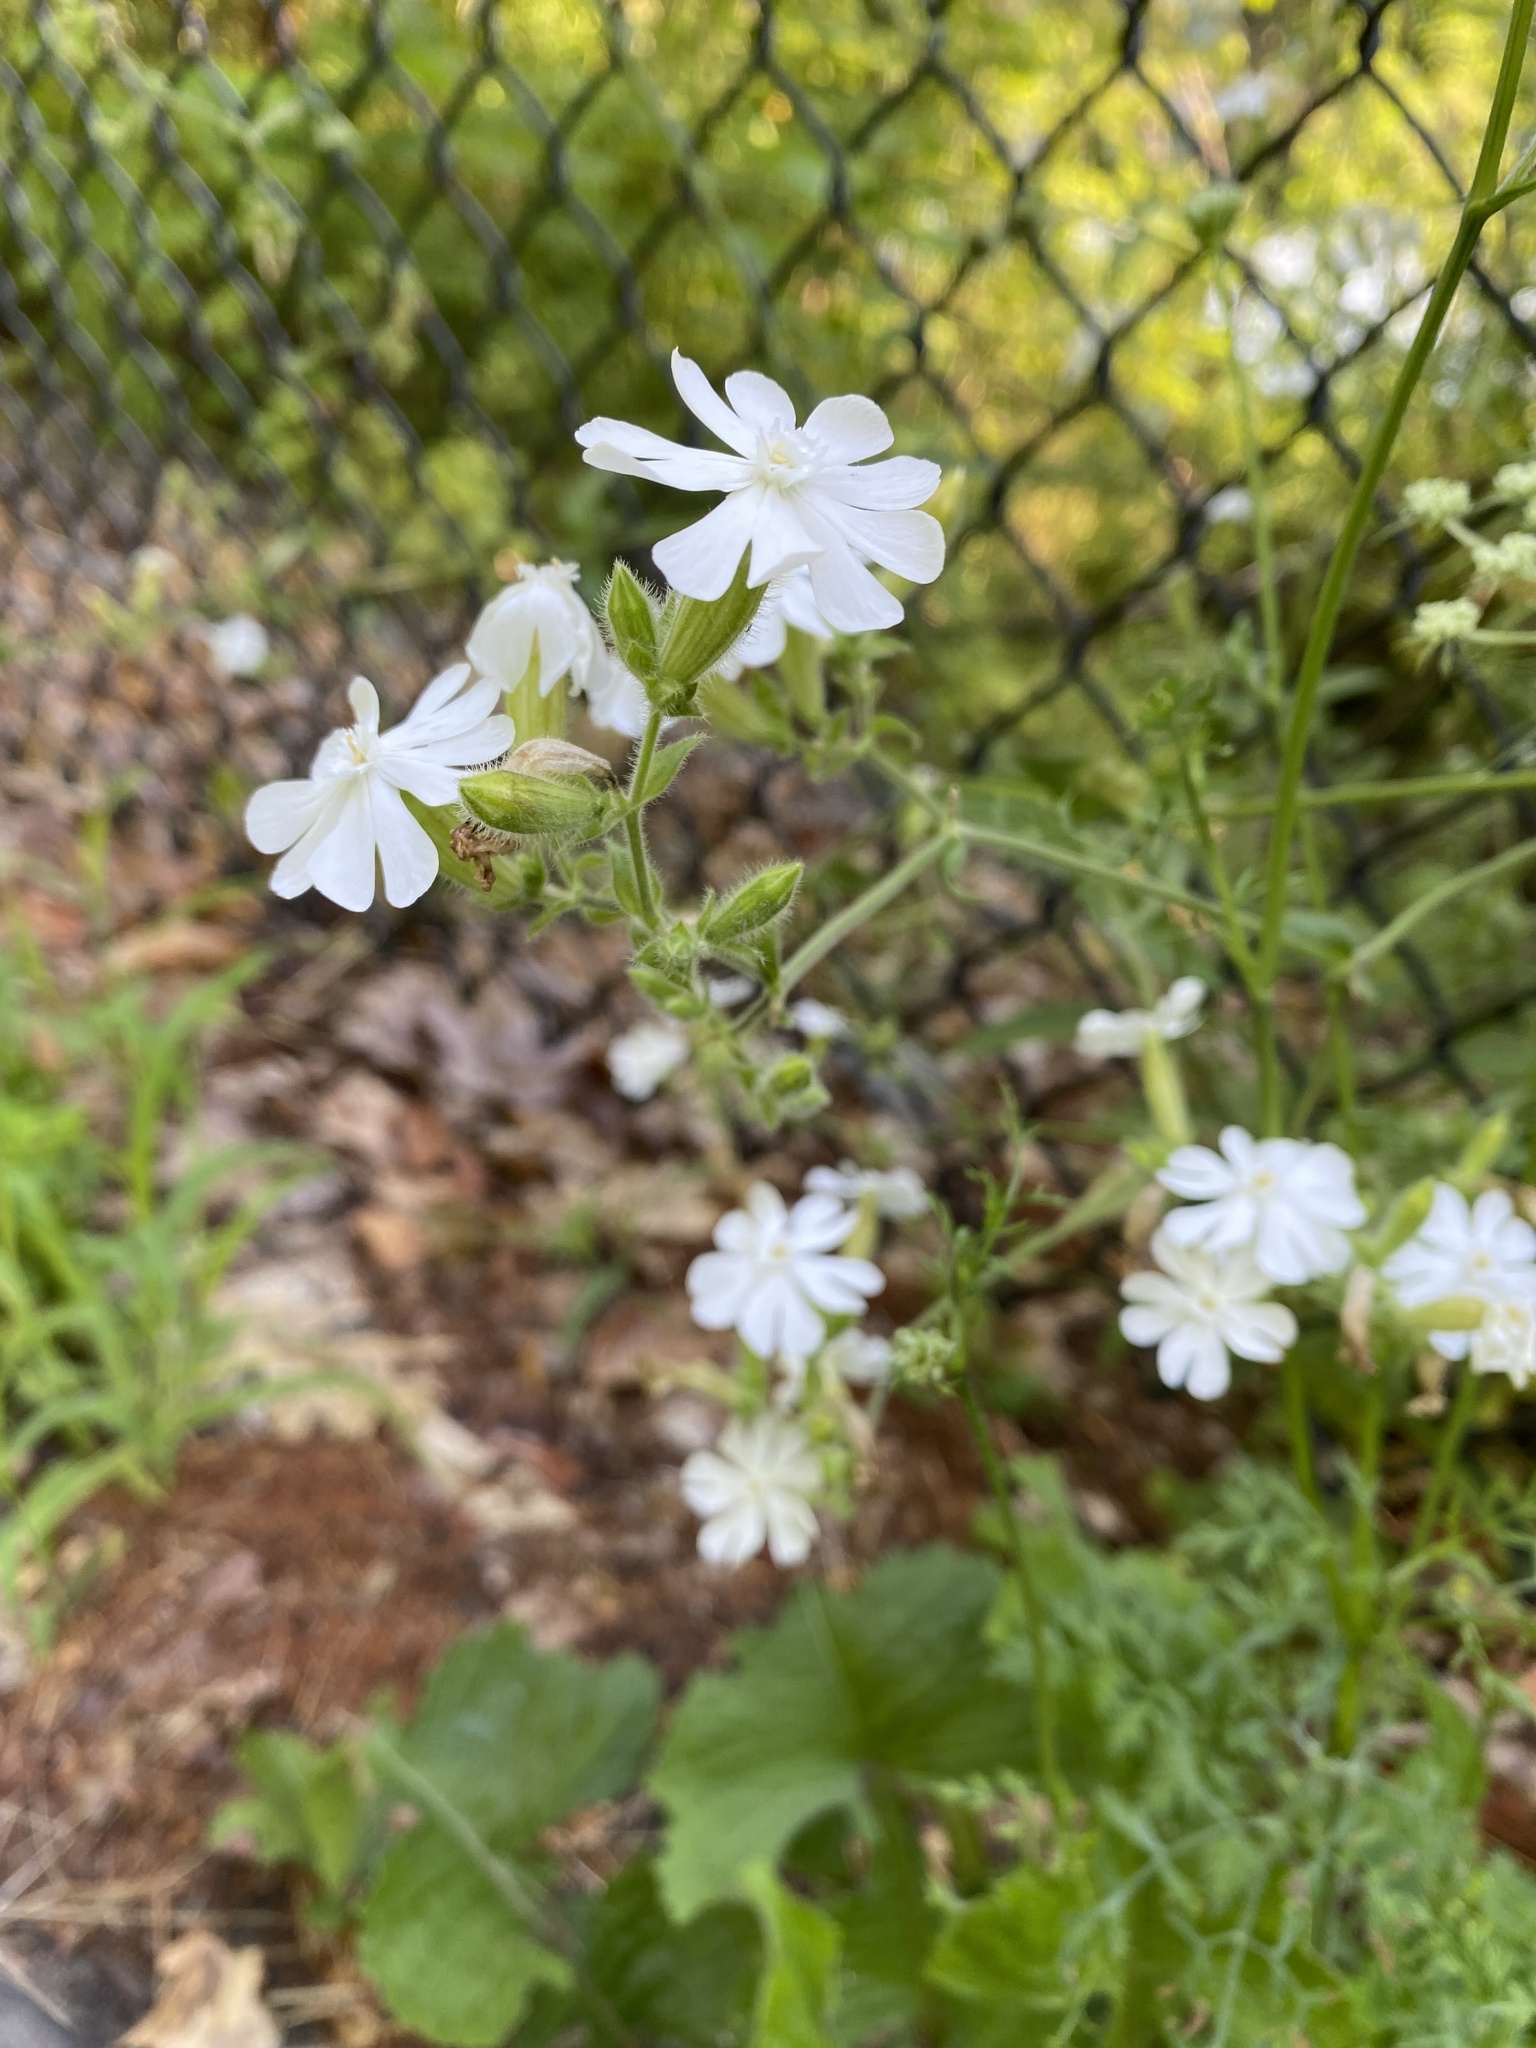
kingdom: Plantae
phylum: Tracheophyta
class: Magnoliopsida
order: Caryophyllales
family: Caryophyllaceae
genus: Silene
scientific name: Silene latifolia
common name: White campion
